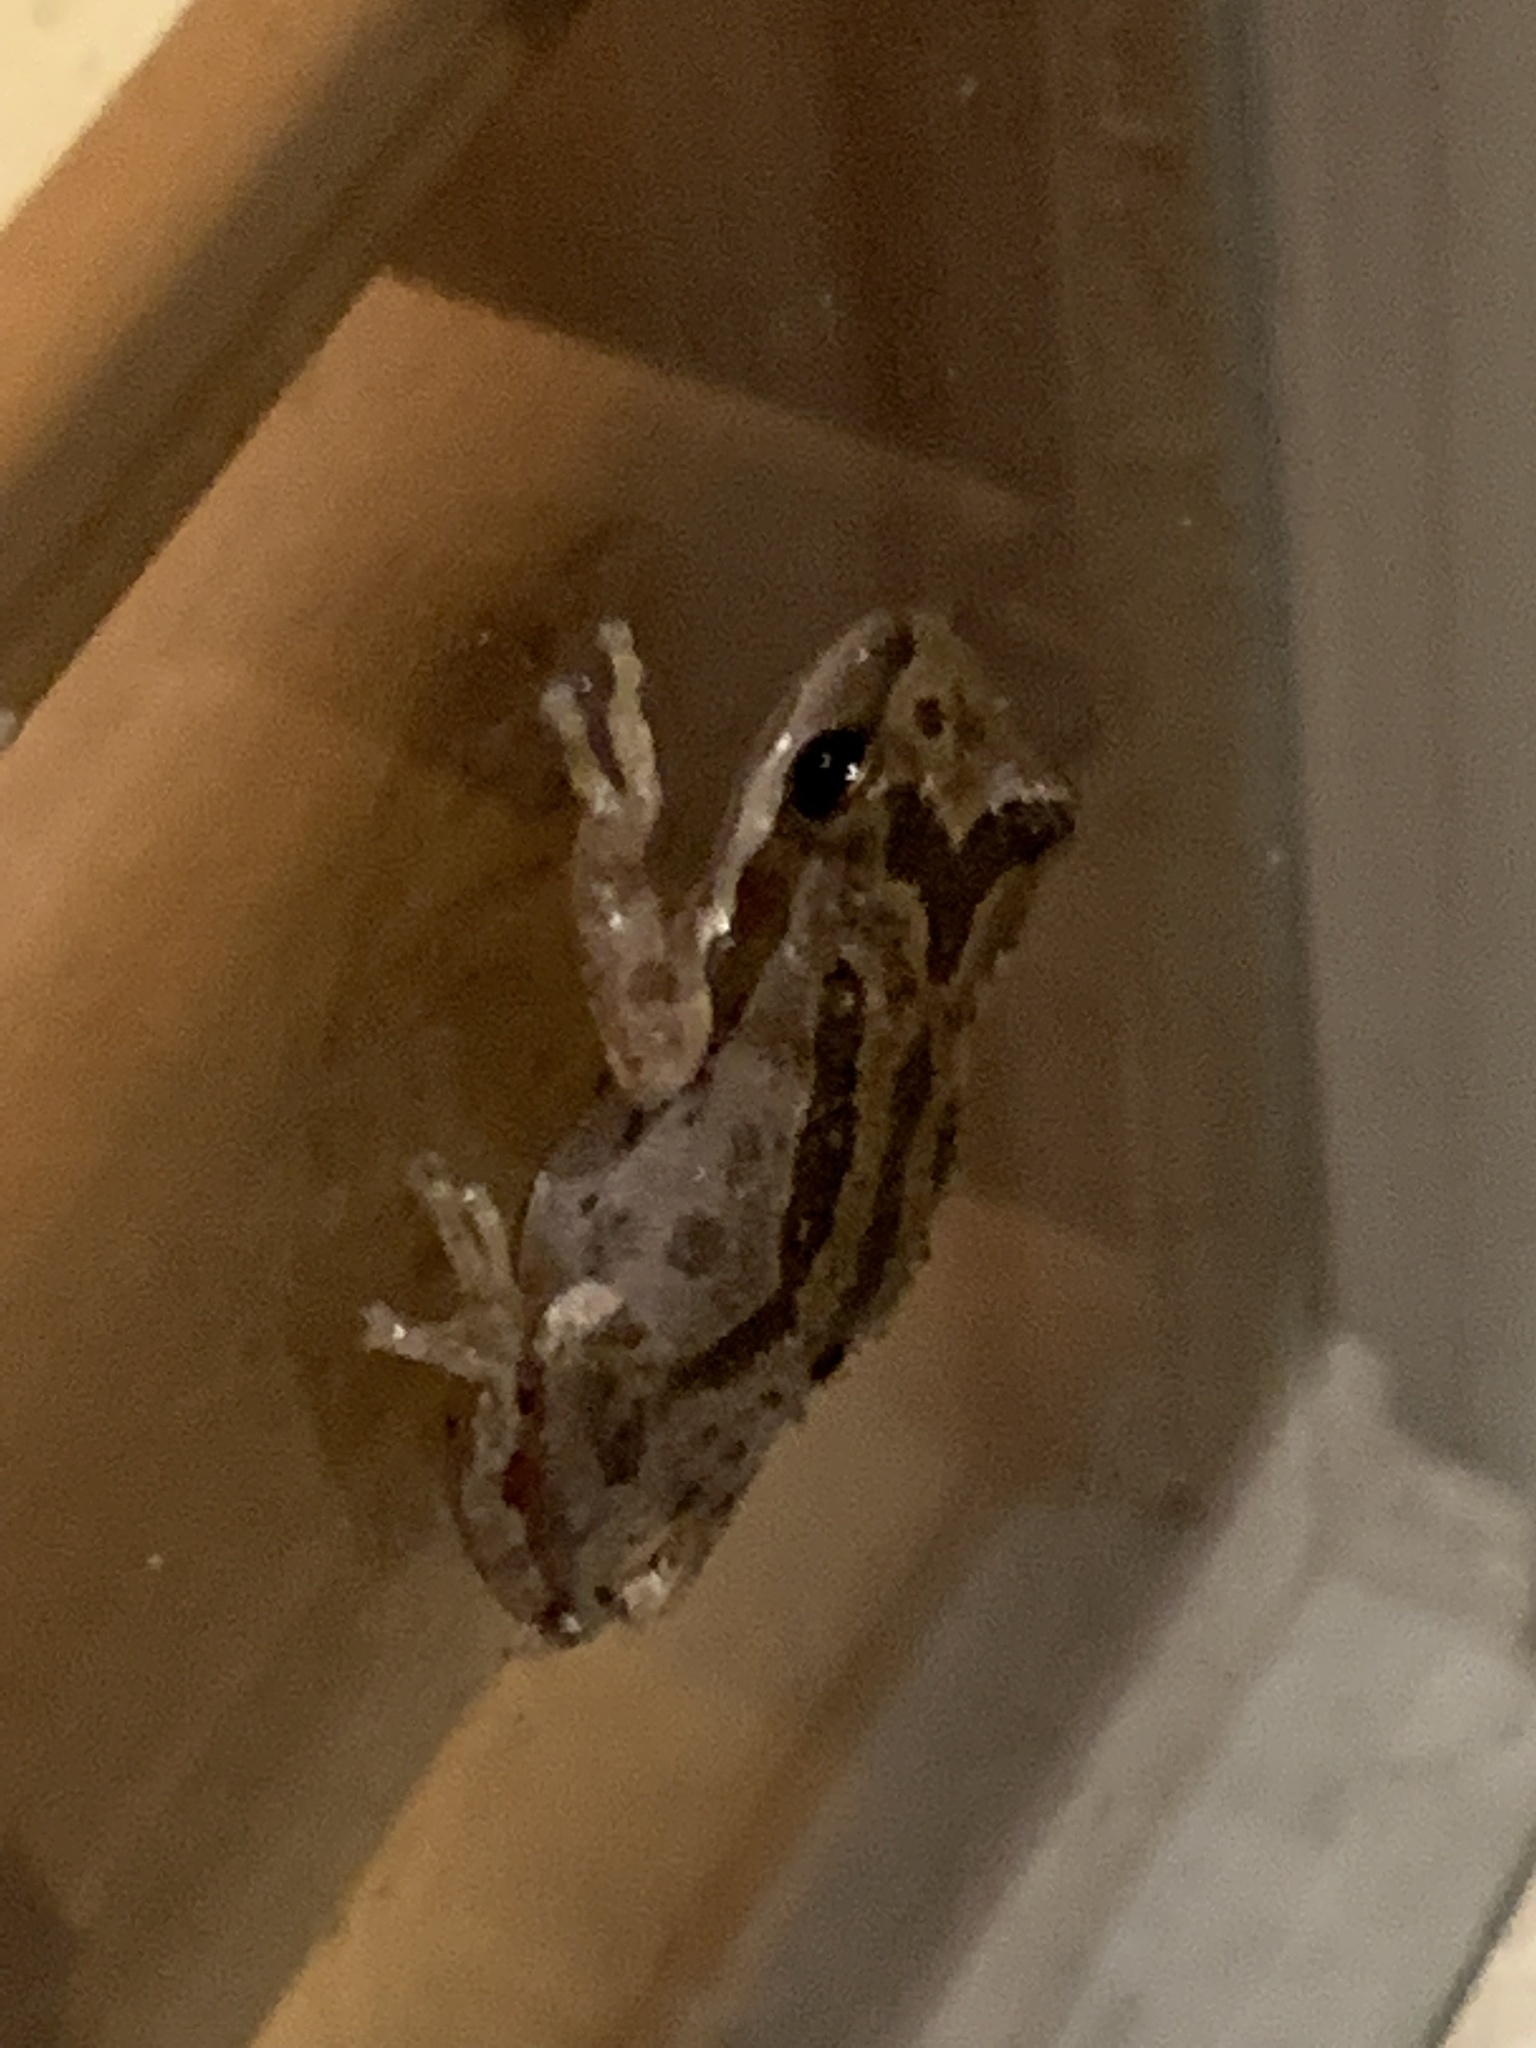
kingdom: Animalia
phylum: Chordata
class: Amphibia
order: Anura
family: Hylidae
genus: Pseudacris
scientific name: Pseudacris regilla
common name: Pacific chorus frog
